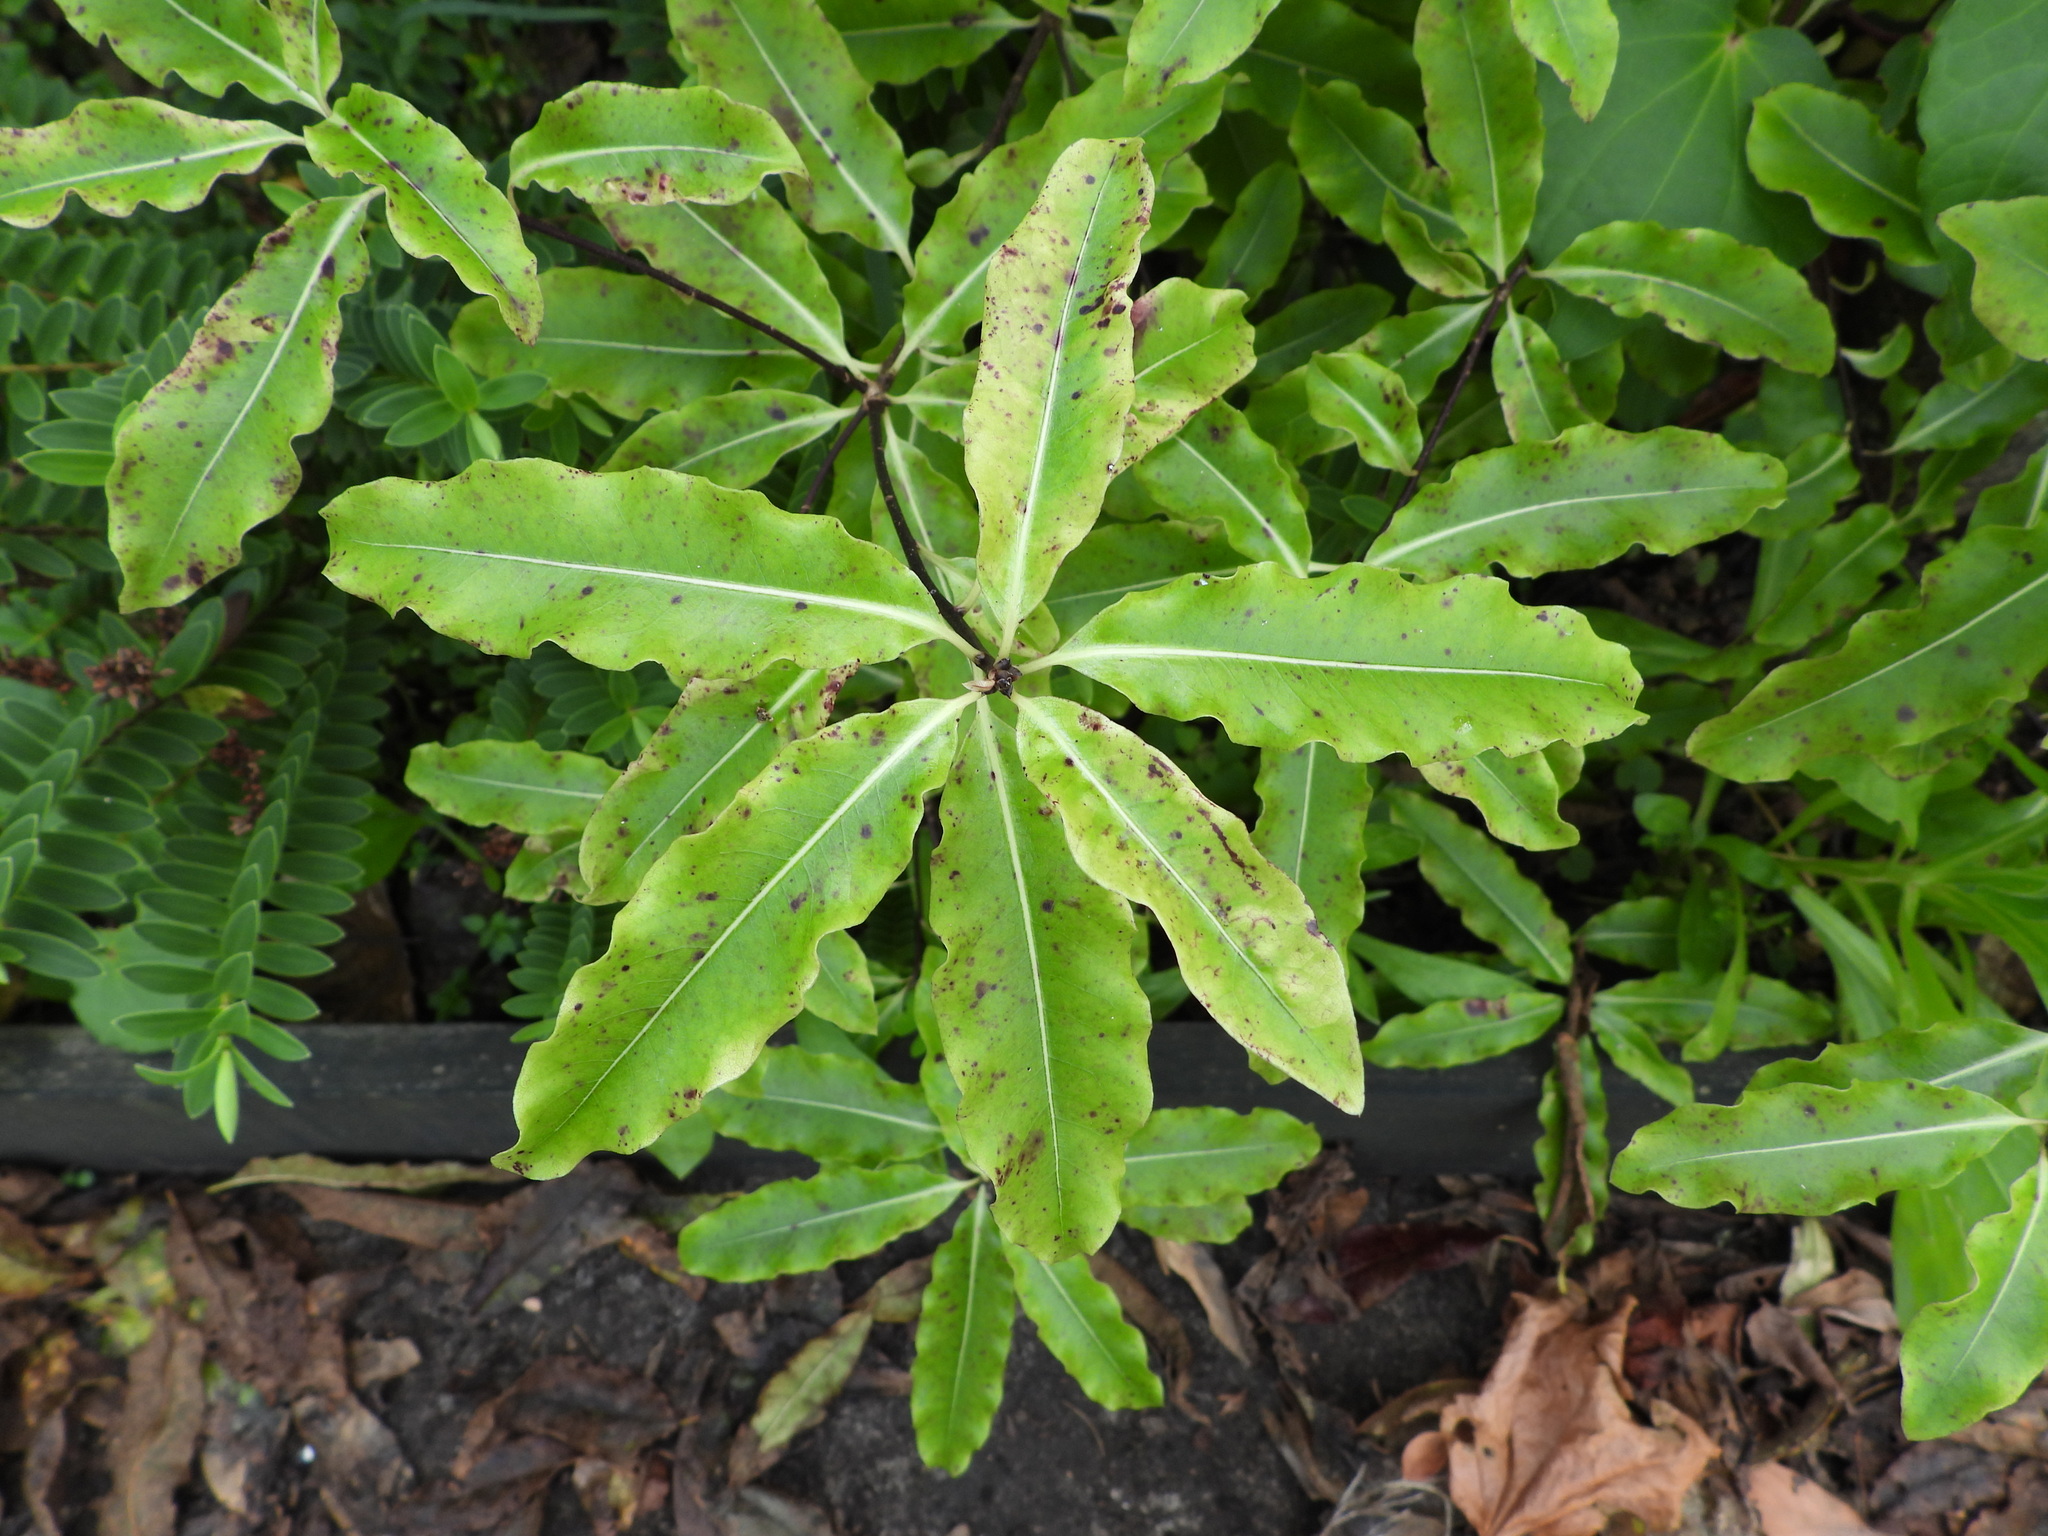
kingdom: Plantae
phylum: Tracheophyta
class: Magnoliopsida
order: Apiales
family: Pittosporaceae
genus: Pittosporum
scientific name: Pittosporum eugenioides
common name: Lemonwood
